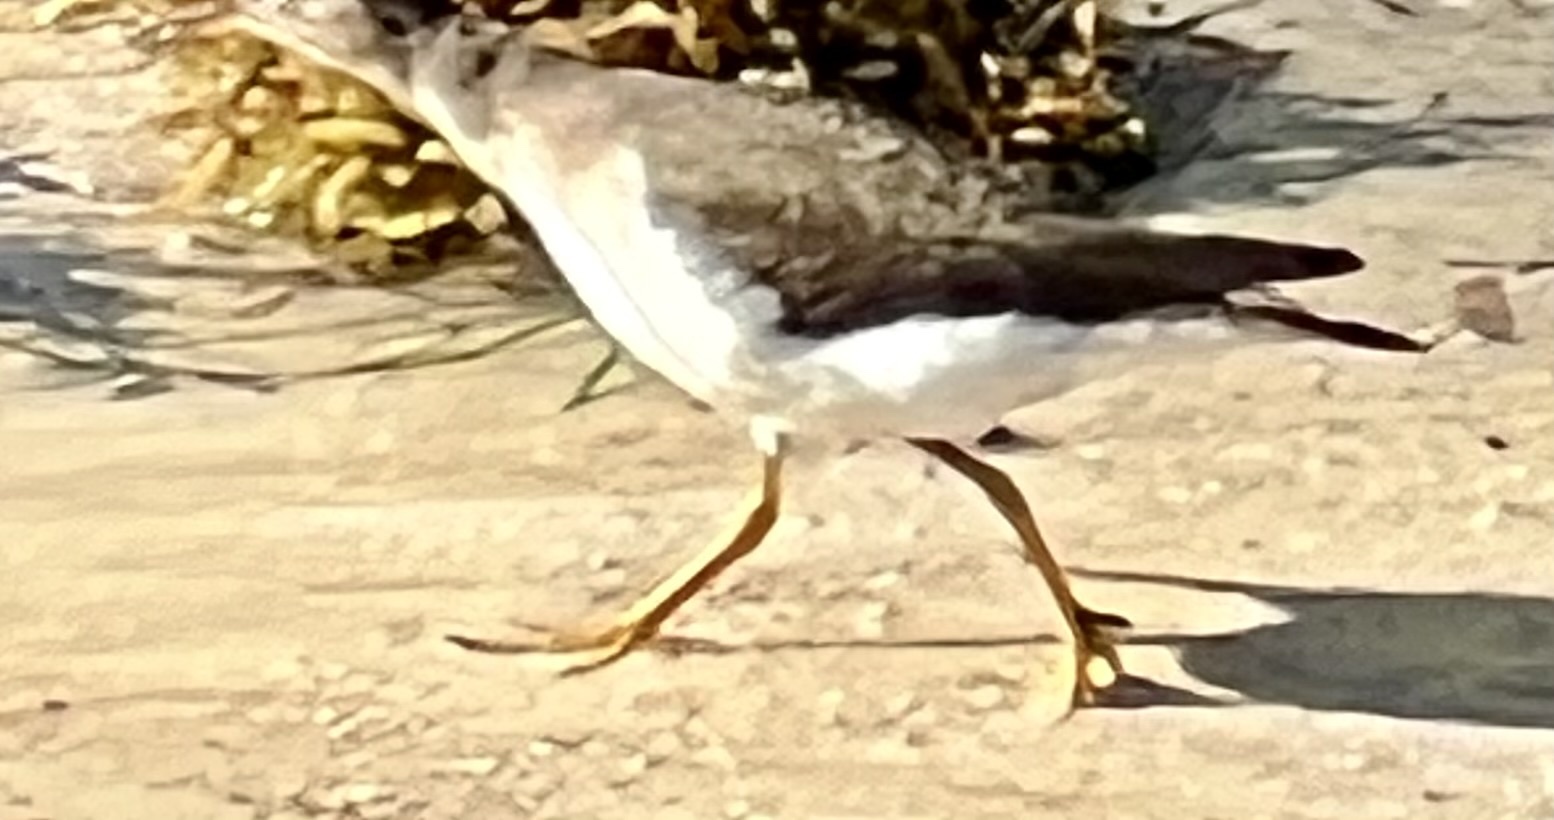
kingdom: Animalia
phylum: Chordata
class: Aves
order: Charadriiformes
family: Scolopacidae
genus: Actitis
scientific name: Actitis macularius
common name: Spotted sandpiper
